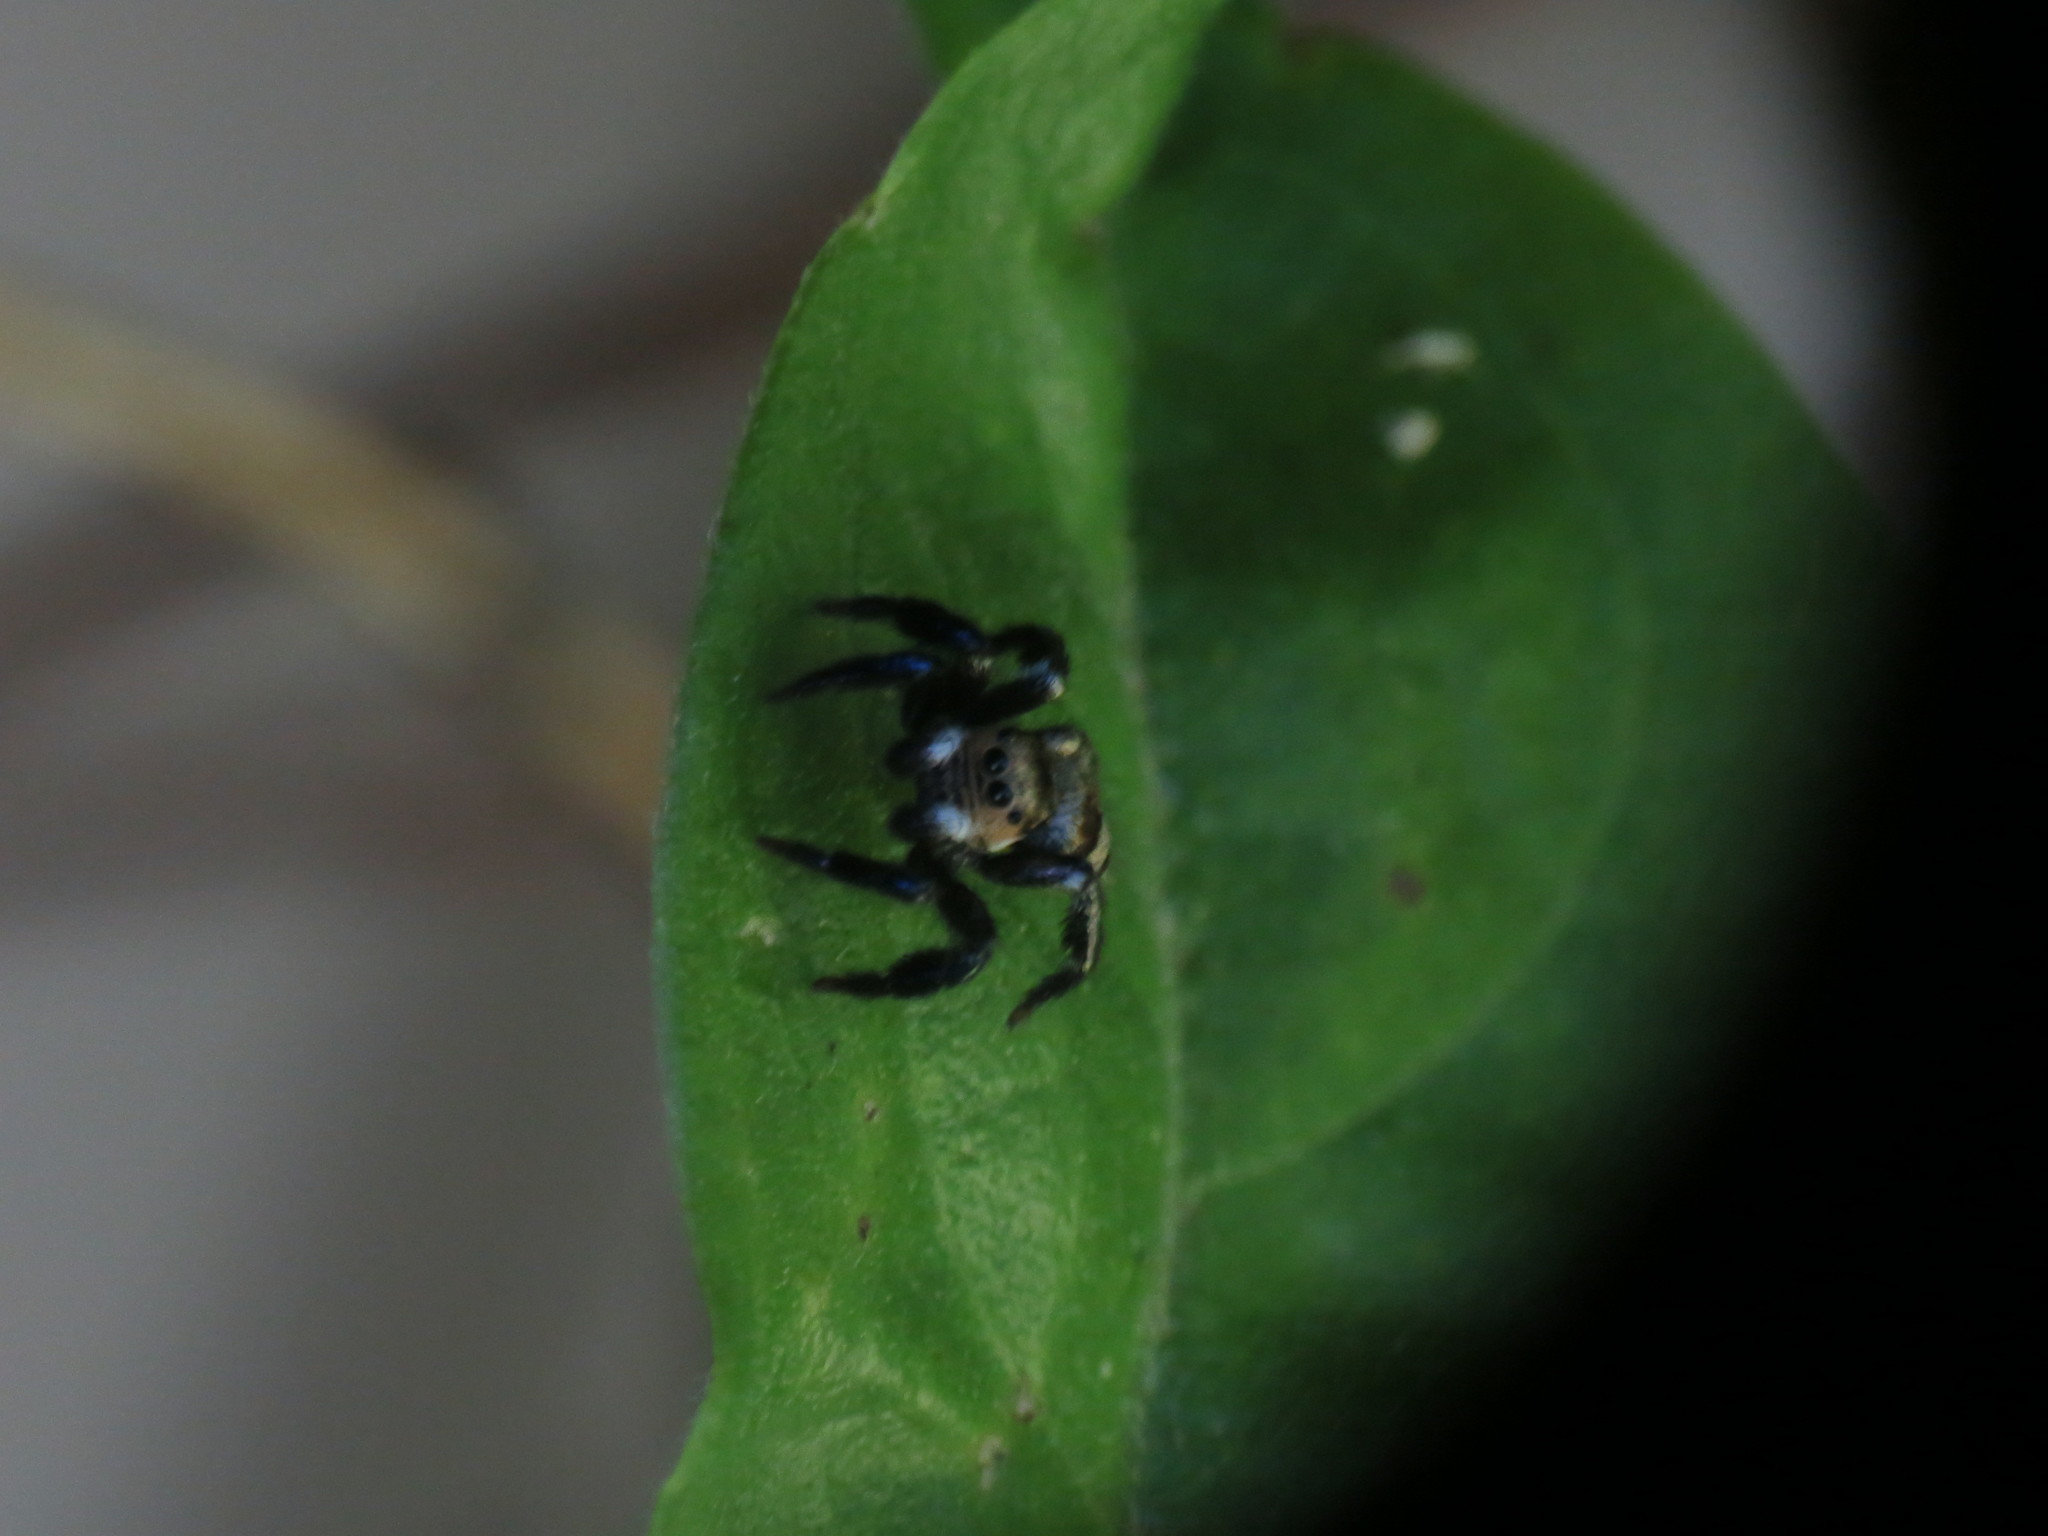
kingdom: Animalia
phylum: Arthropoda
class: Arachnida
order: Araneae
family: Salticidae
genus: Corythalia
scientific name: Corythalia argentinensis
